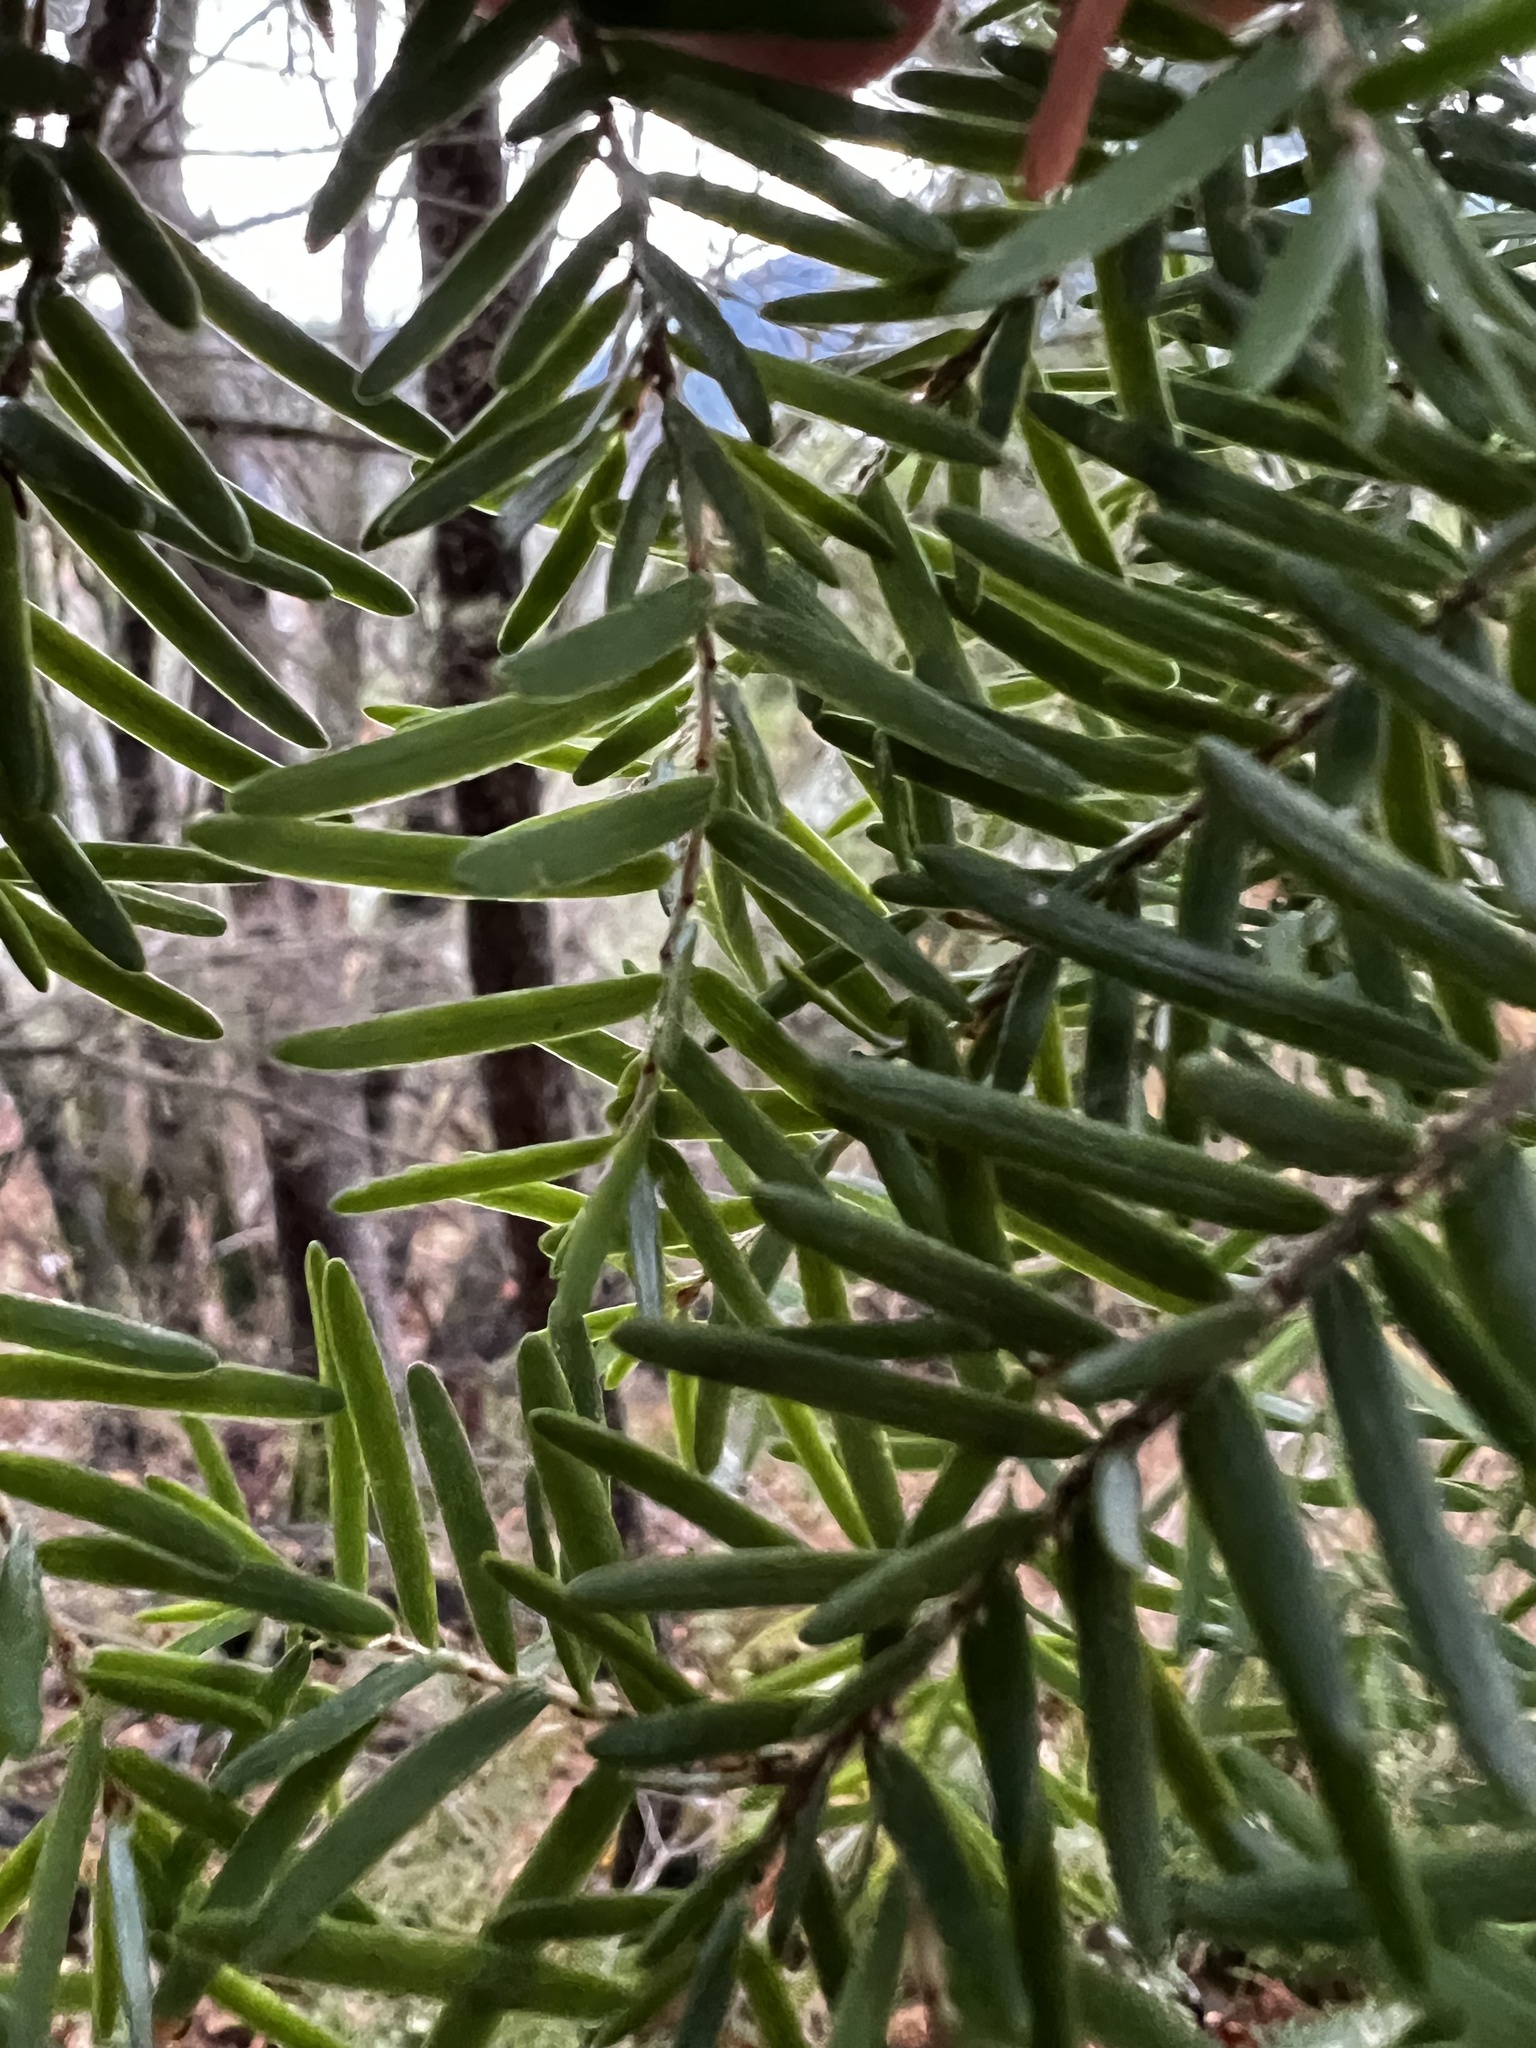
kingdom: Plantae
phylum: Tracheophyta
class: Pinopsida
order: Pinales
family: Pinaceae
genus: Tsuga
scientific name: Tsuga heterophylla
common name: Western hemlock
